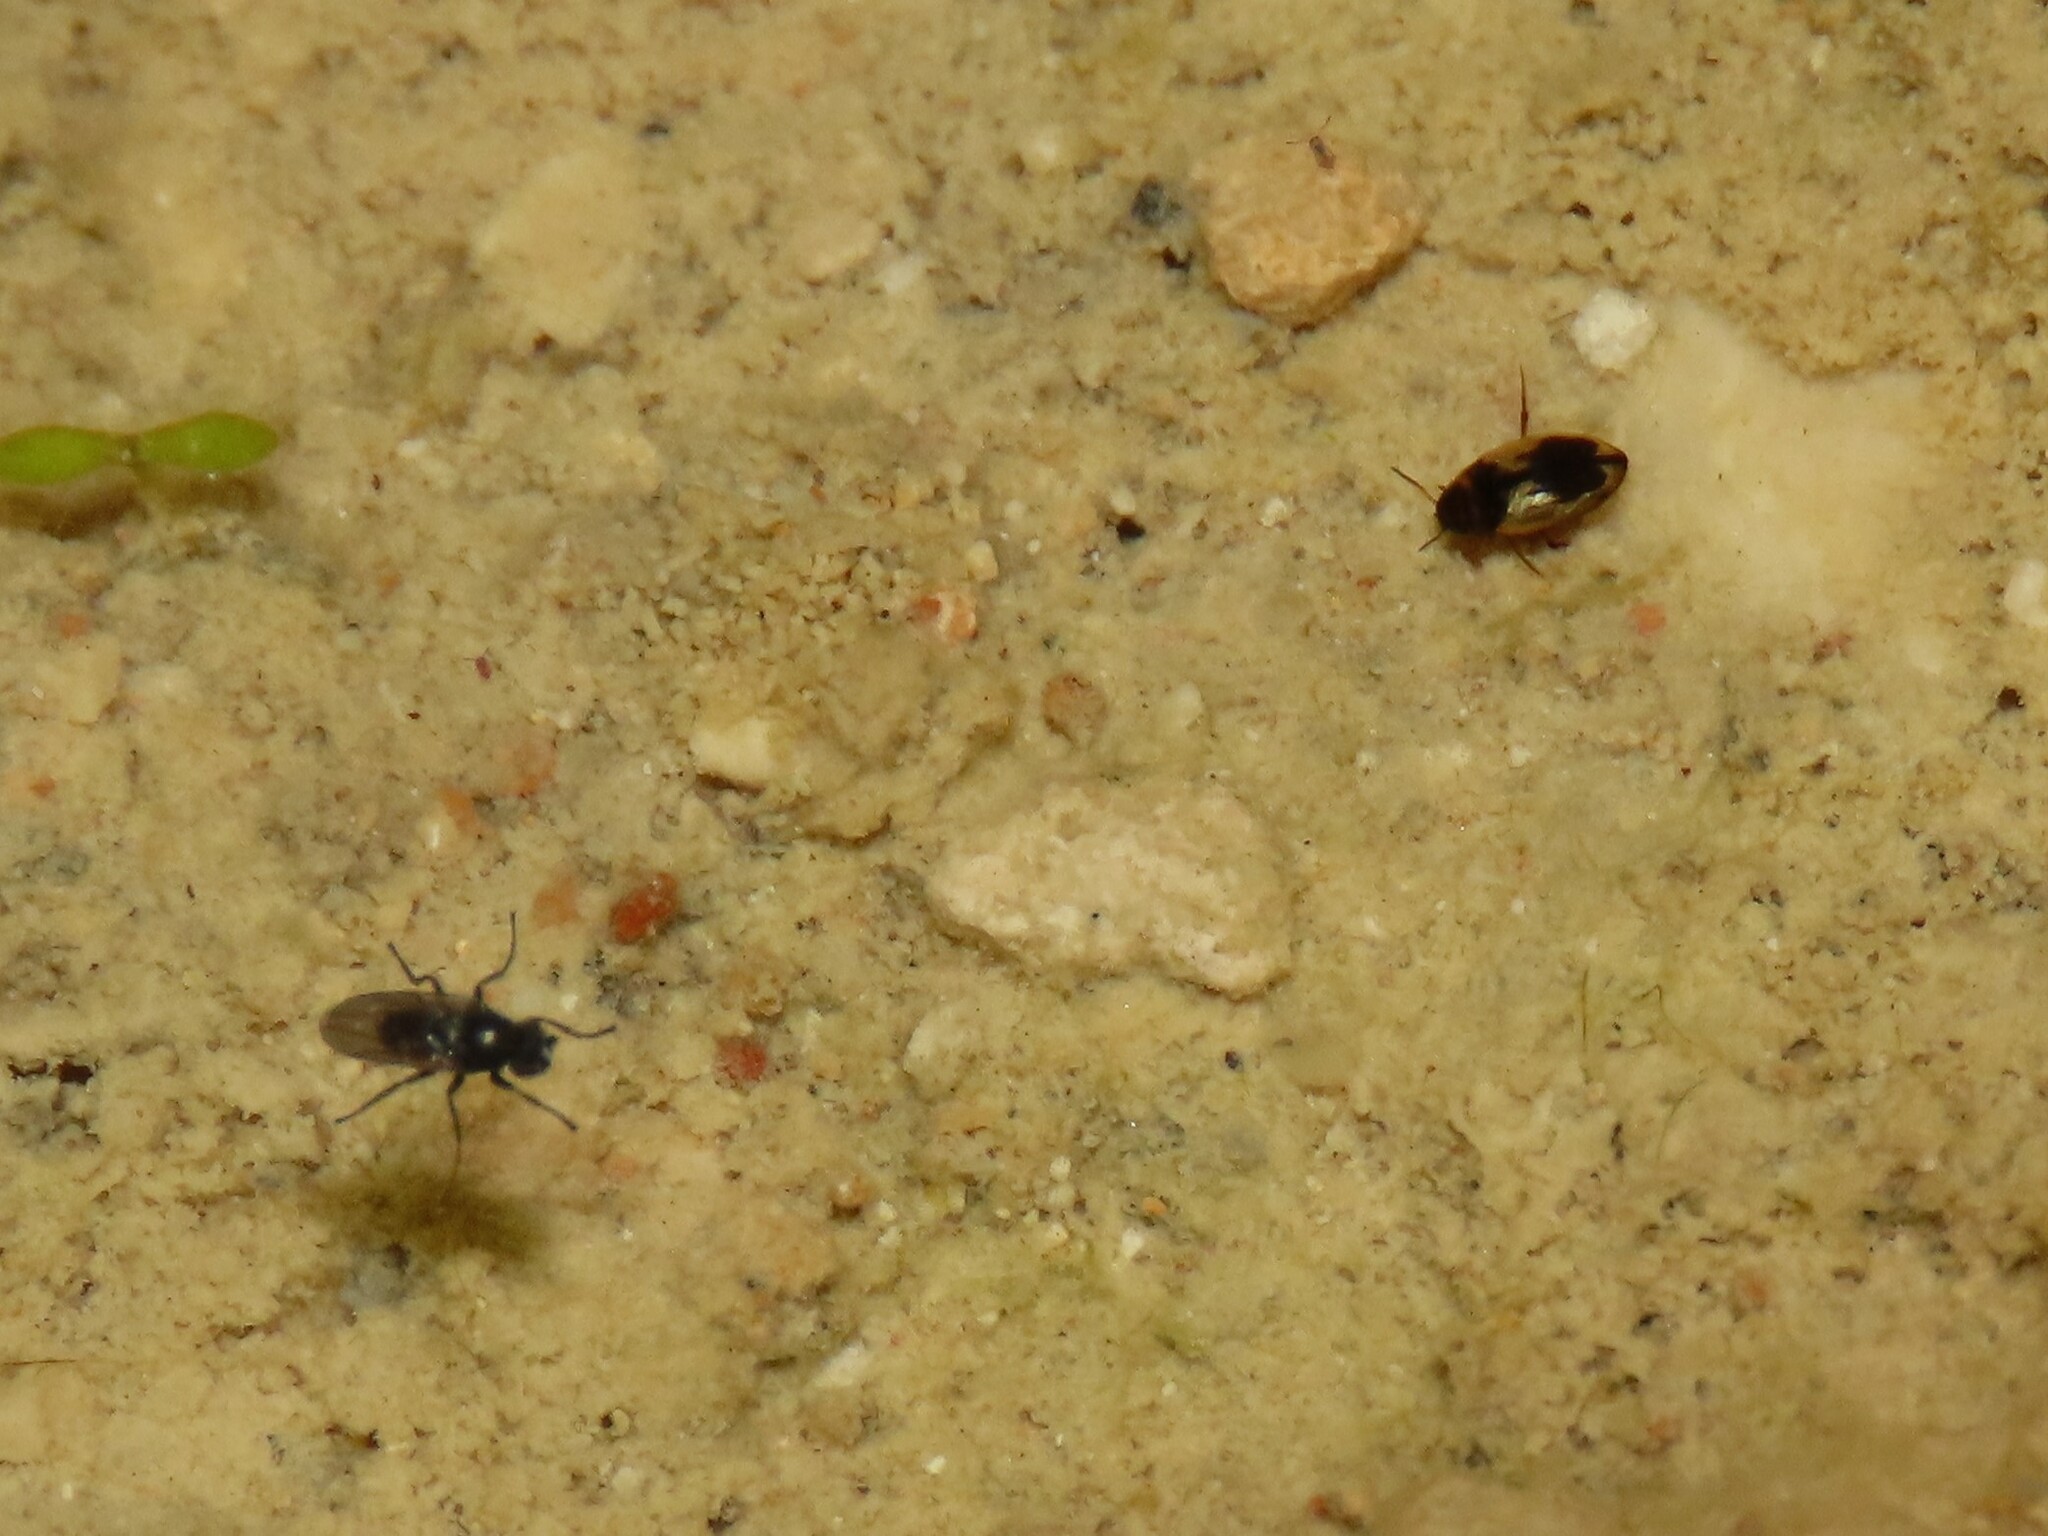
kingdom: Animalia
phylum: Arthropoda
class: Insecta
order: Coleoptera
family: Dytiscidae
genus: Hydroglyphus
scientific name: Hydroglyphus geminus
